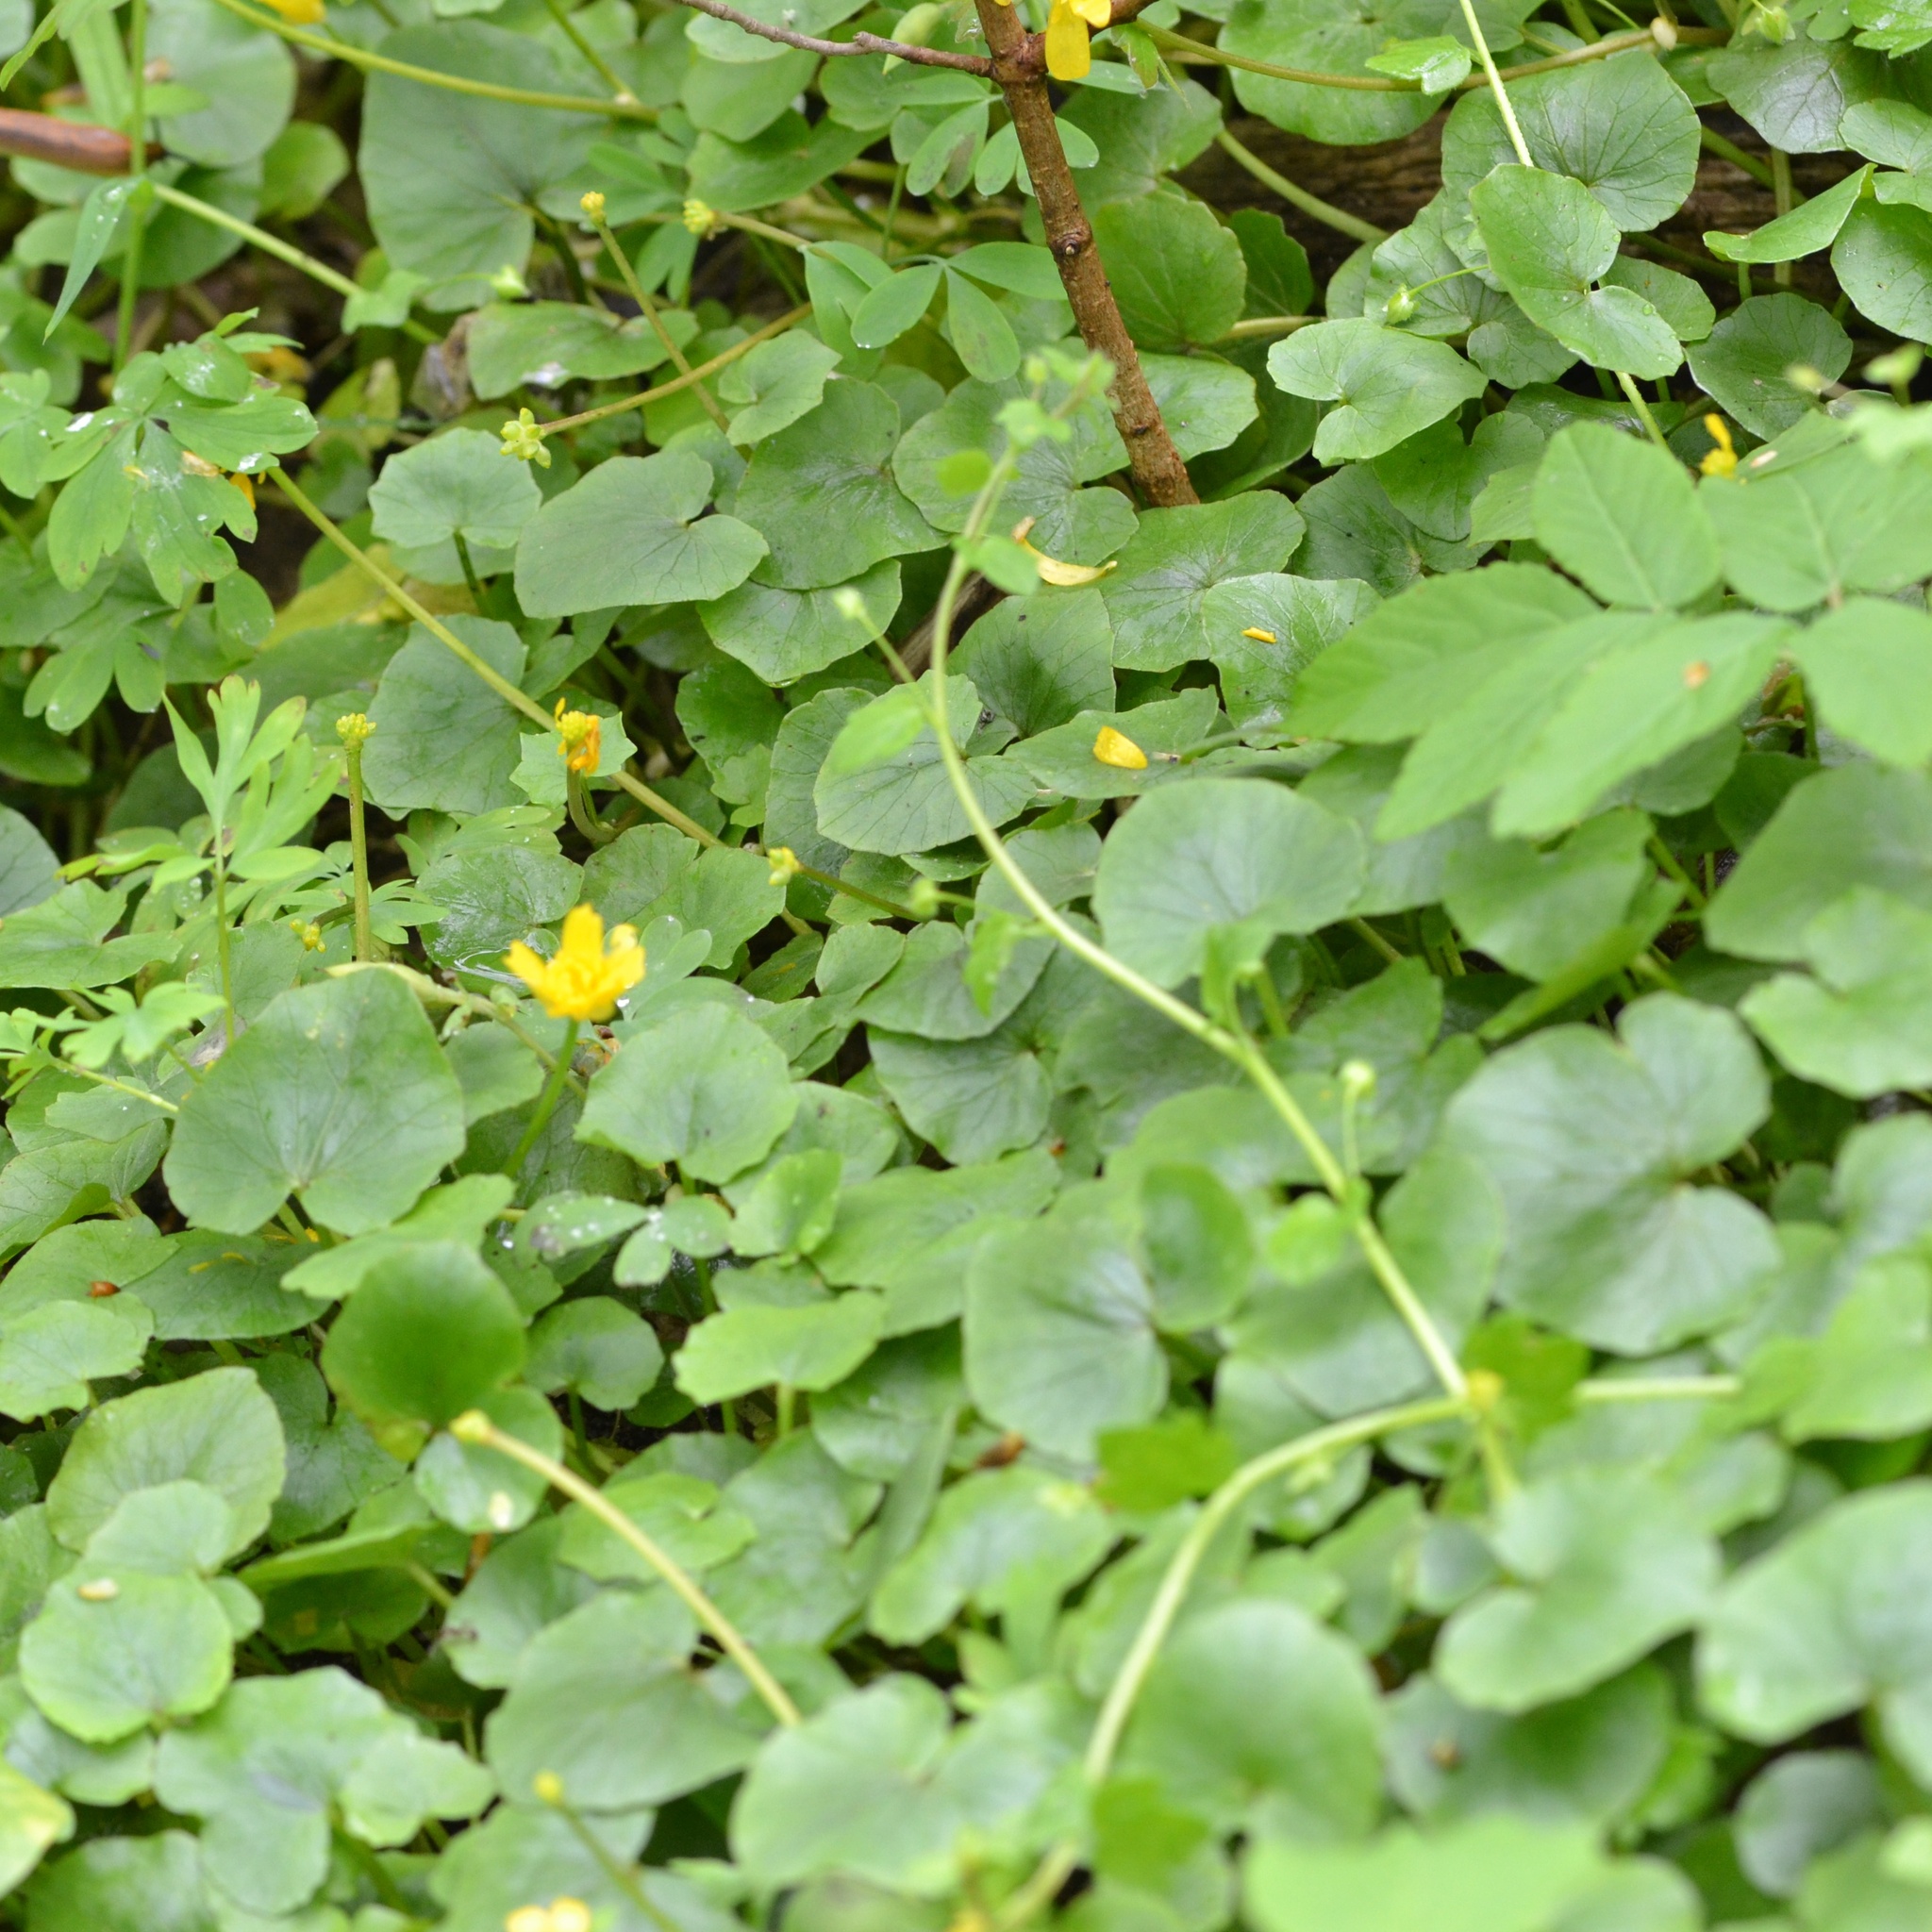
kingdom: Plantae
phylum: Tracheophyta
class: Magnoliopsida
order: Ranunculales
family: Ranunculaceae
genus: Ficaria
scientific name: Ficaria verna
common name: Lesser celandine
